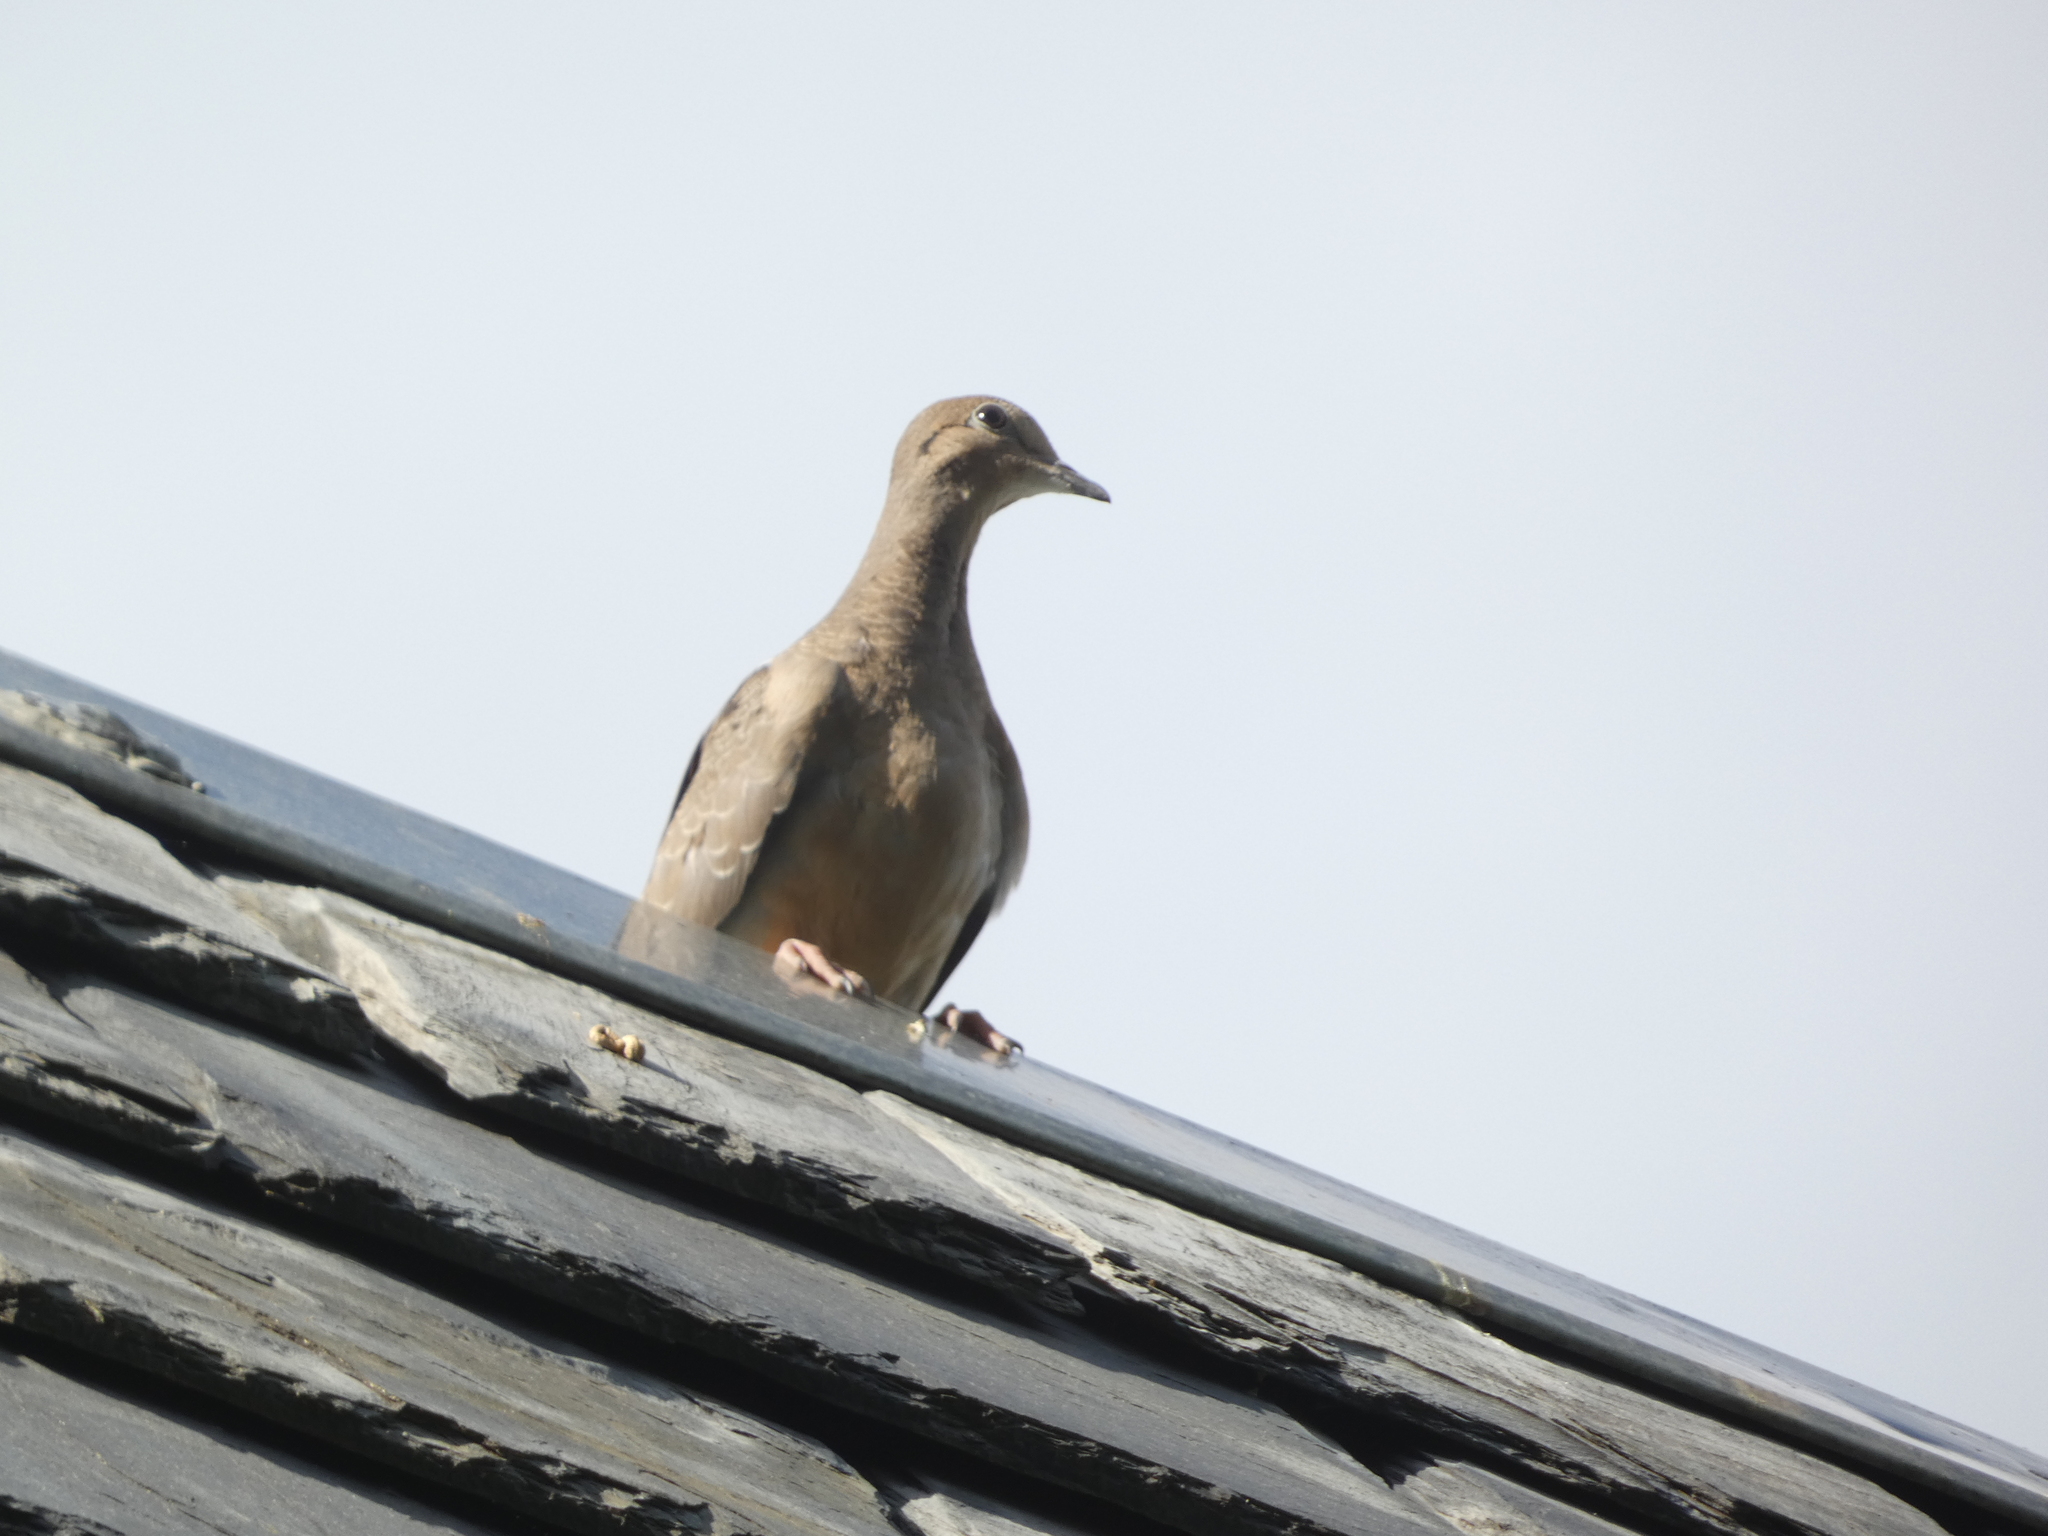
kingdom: Animalia
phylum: Chordata
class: Aves
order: Columbiformes
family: Columbidae
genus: Zenaida
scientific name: Zenaida macroura
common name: Mourning dove
